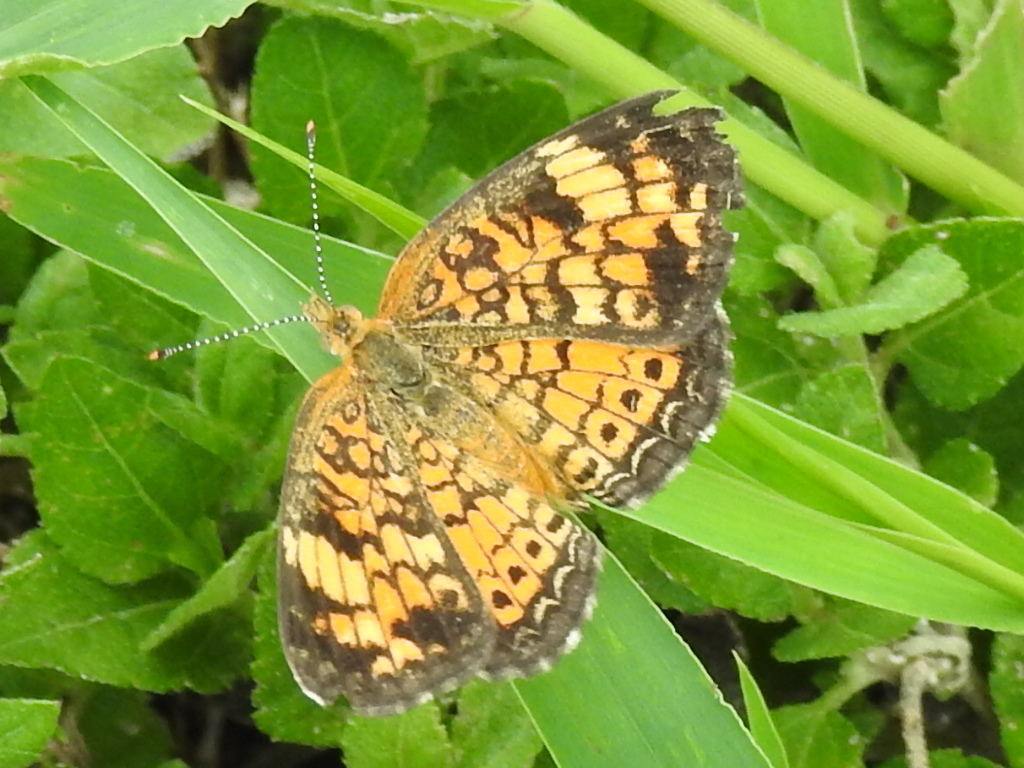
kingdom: Animalia
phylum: Arthropoda
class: Insecta
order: Lepidoptera
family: Nymphalidae
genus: Phyciodes
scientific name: Phyciodes tharos
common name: Pearl crescent
